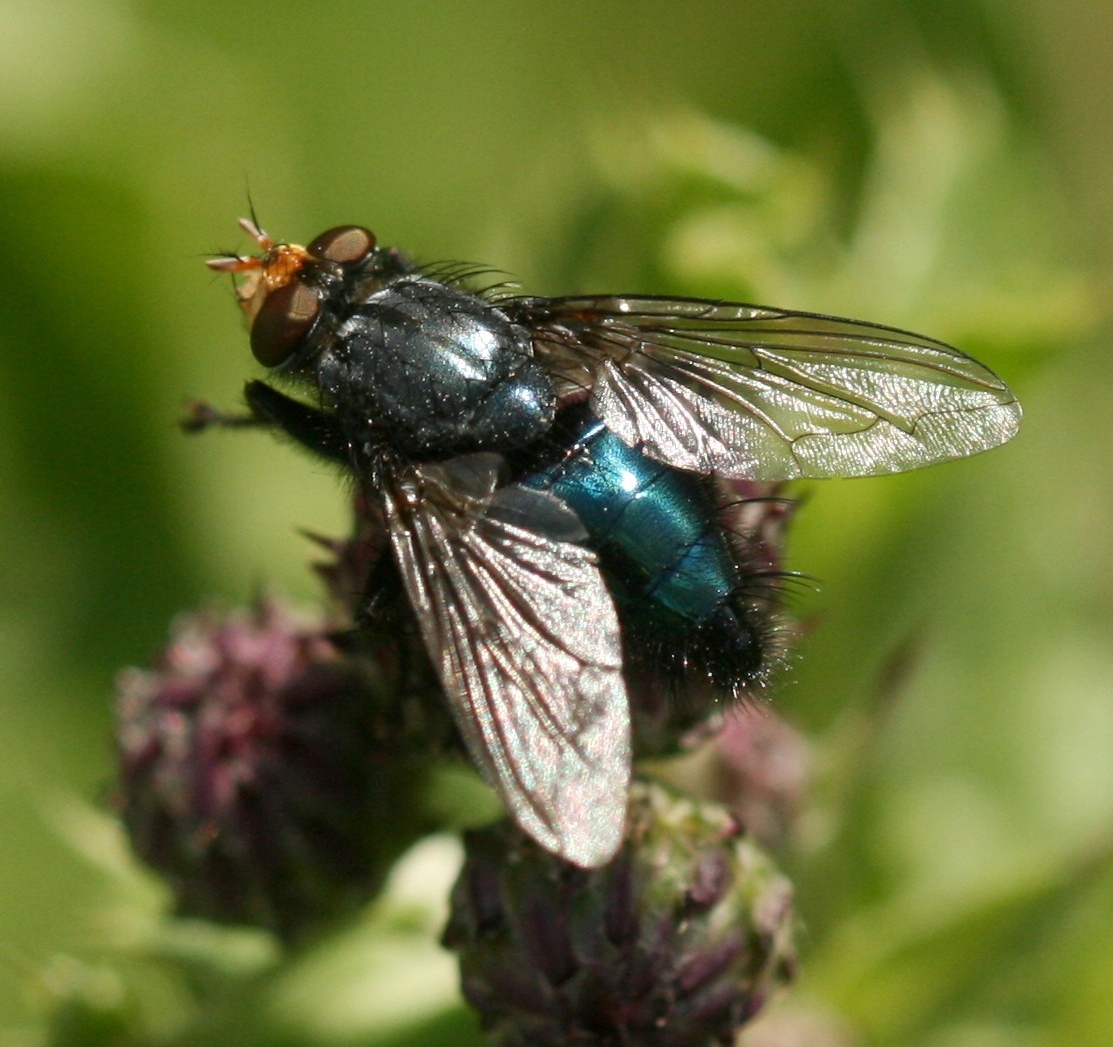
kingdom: Animalia
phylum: Arthropoda
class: Insecta
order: Diptera
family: Calliphoridae
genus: Cynomya
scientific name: Cynomya mortuorum
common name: Bluebottle blow fly
